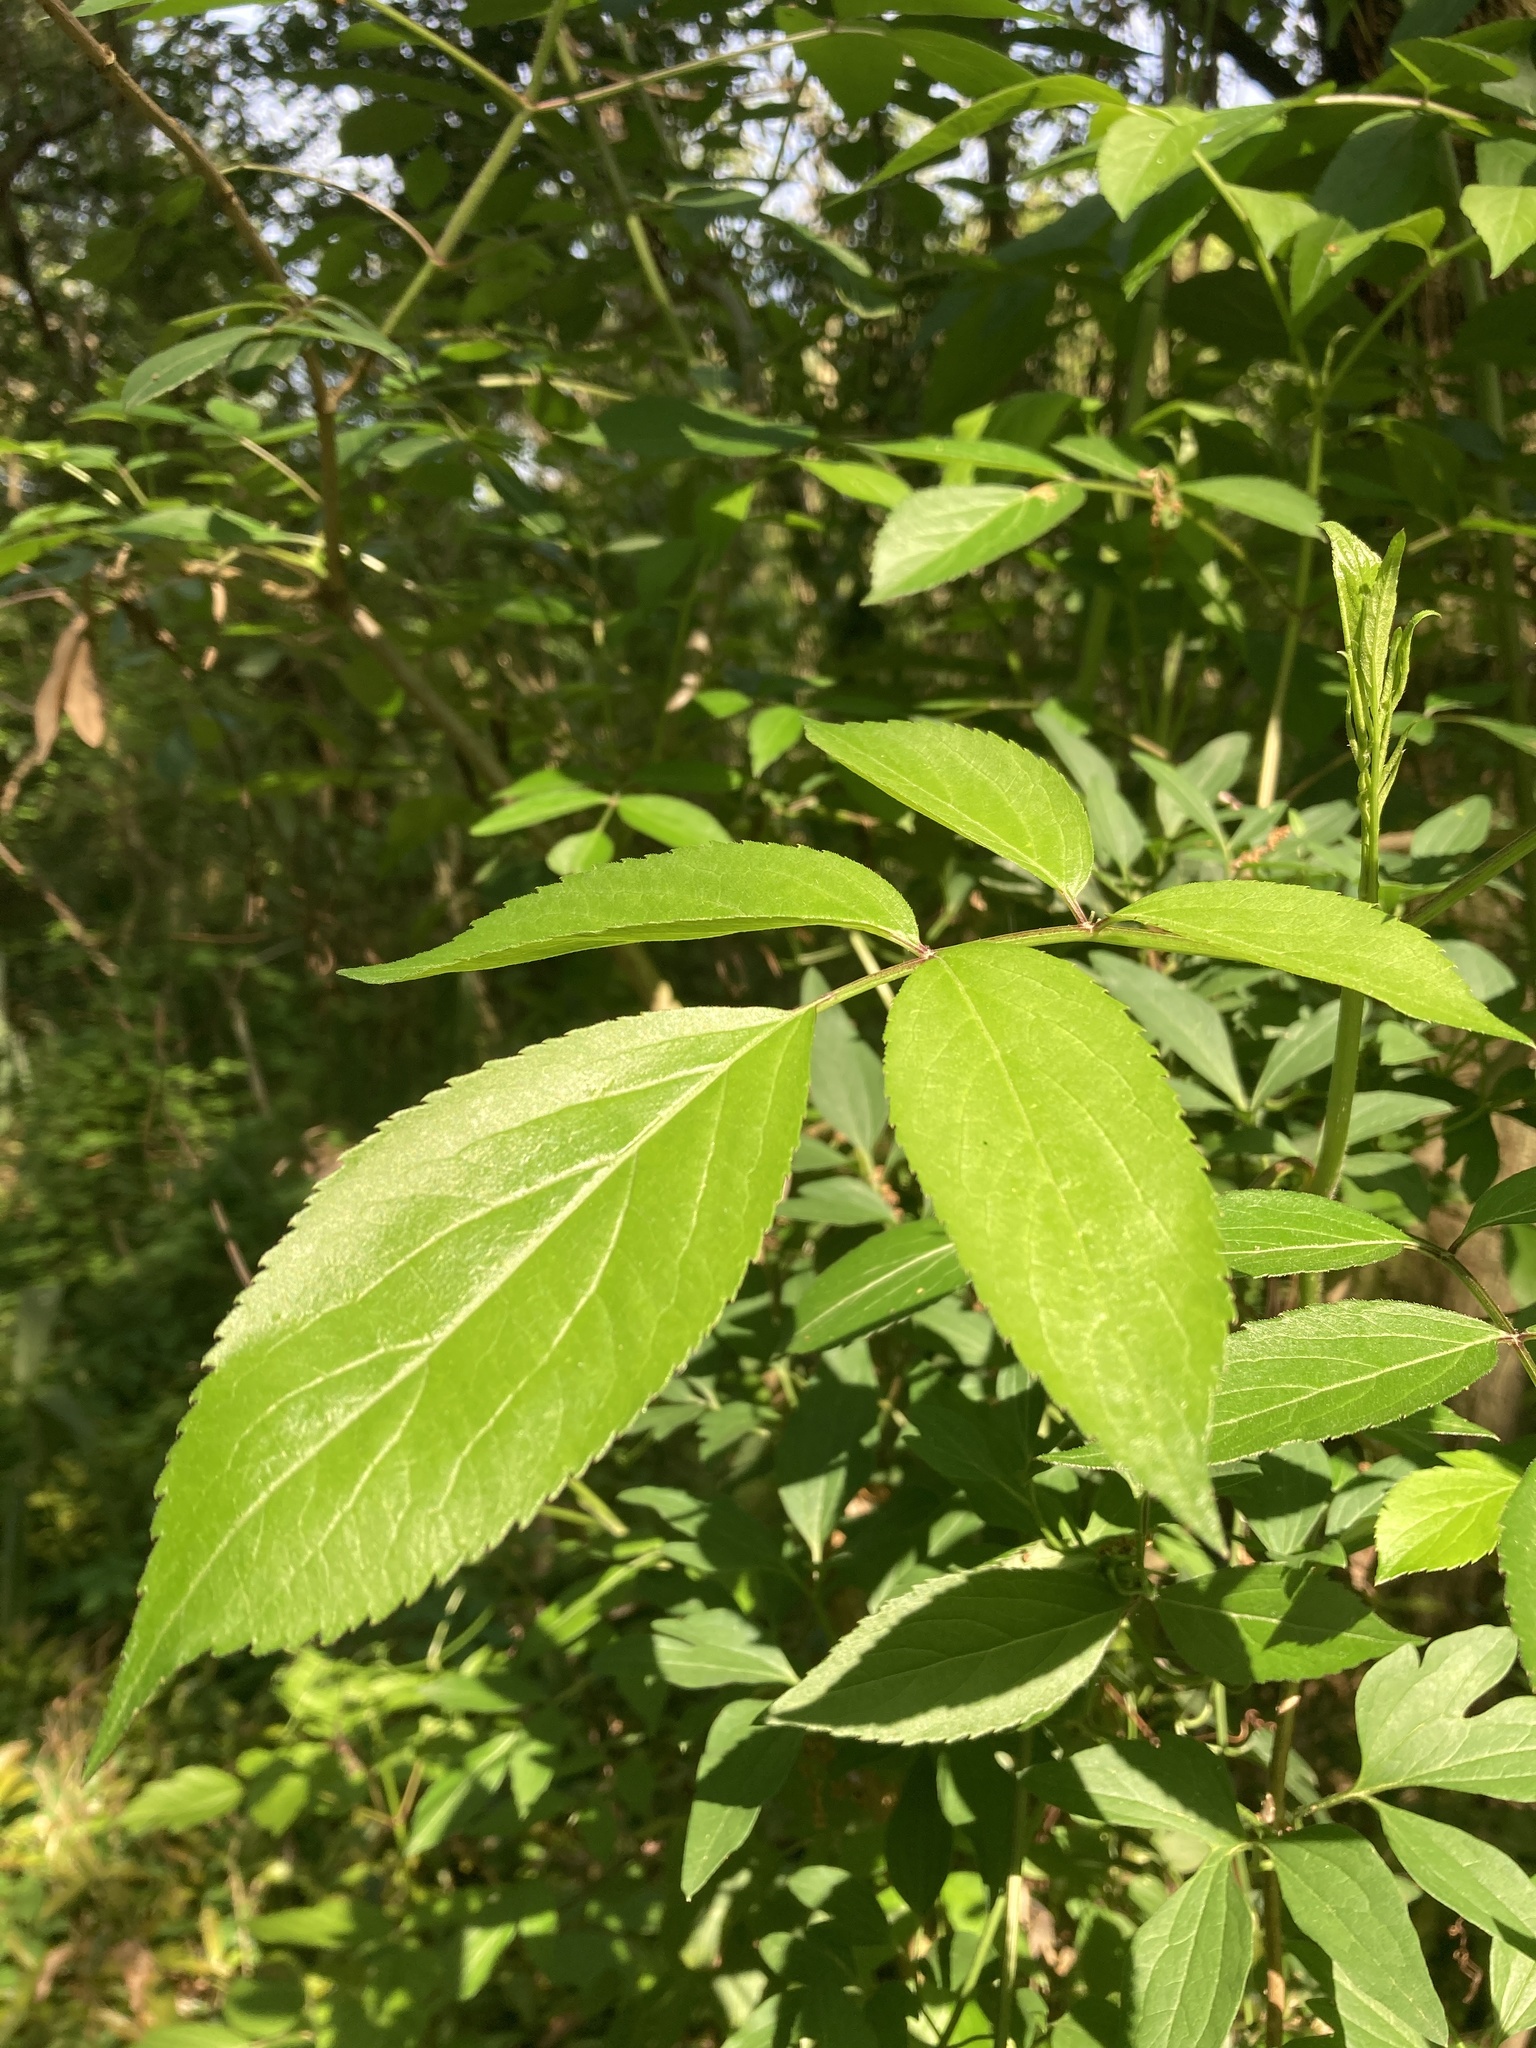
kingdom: Plantae
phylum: Tracheophyta
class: Magnoliopsida
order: Dipsacales
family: Viburnaceae
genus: Sambucus
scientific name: Sambucus canadensis
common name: American elder
